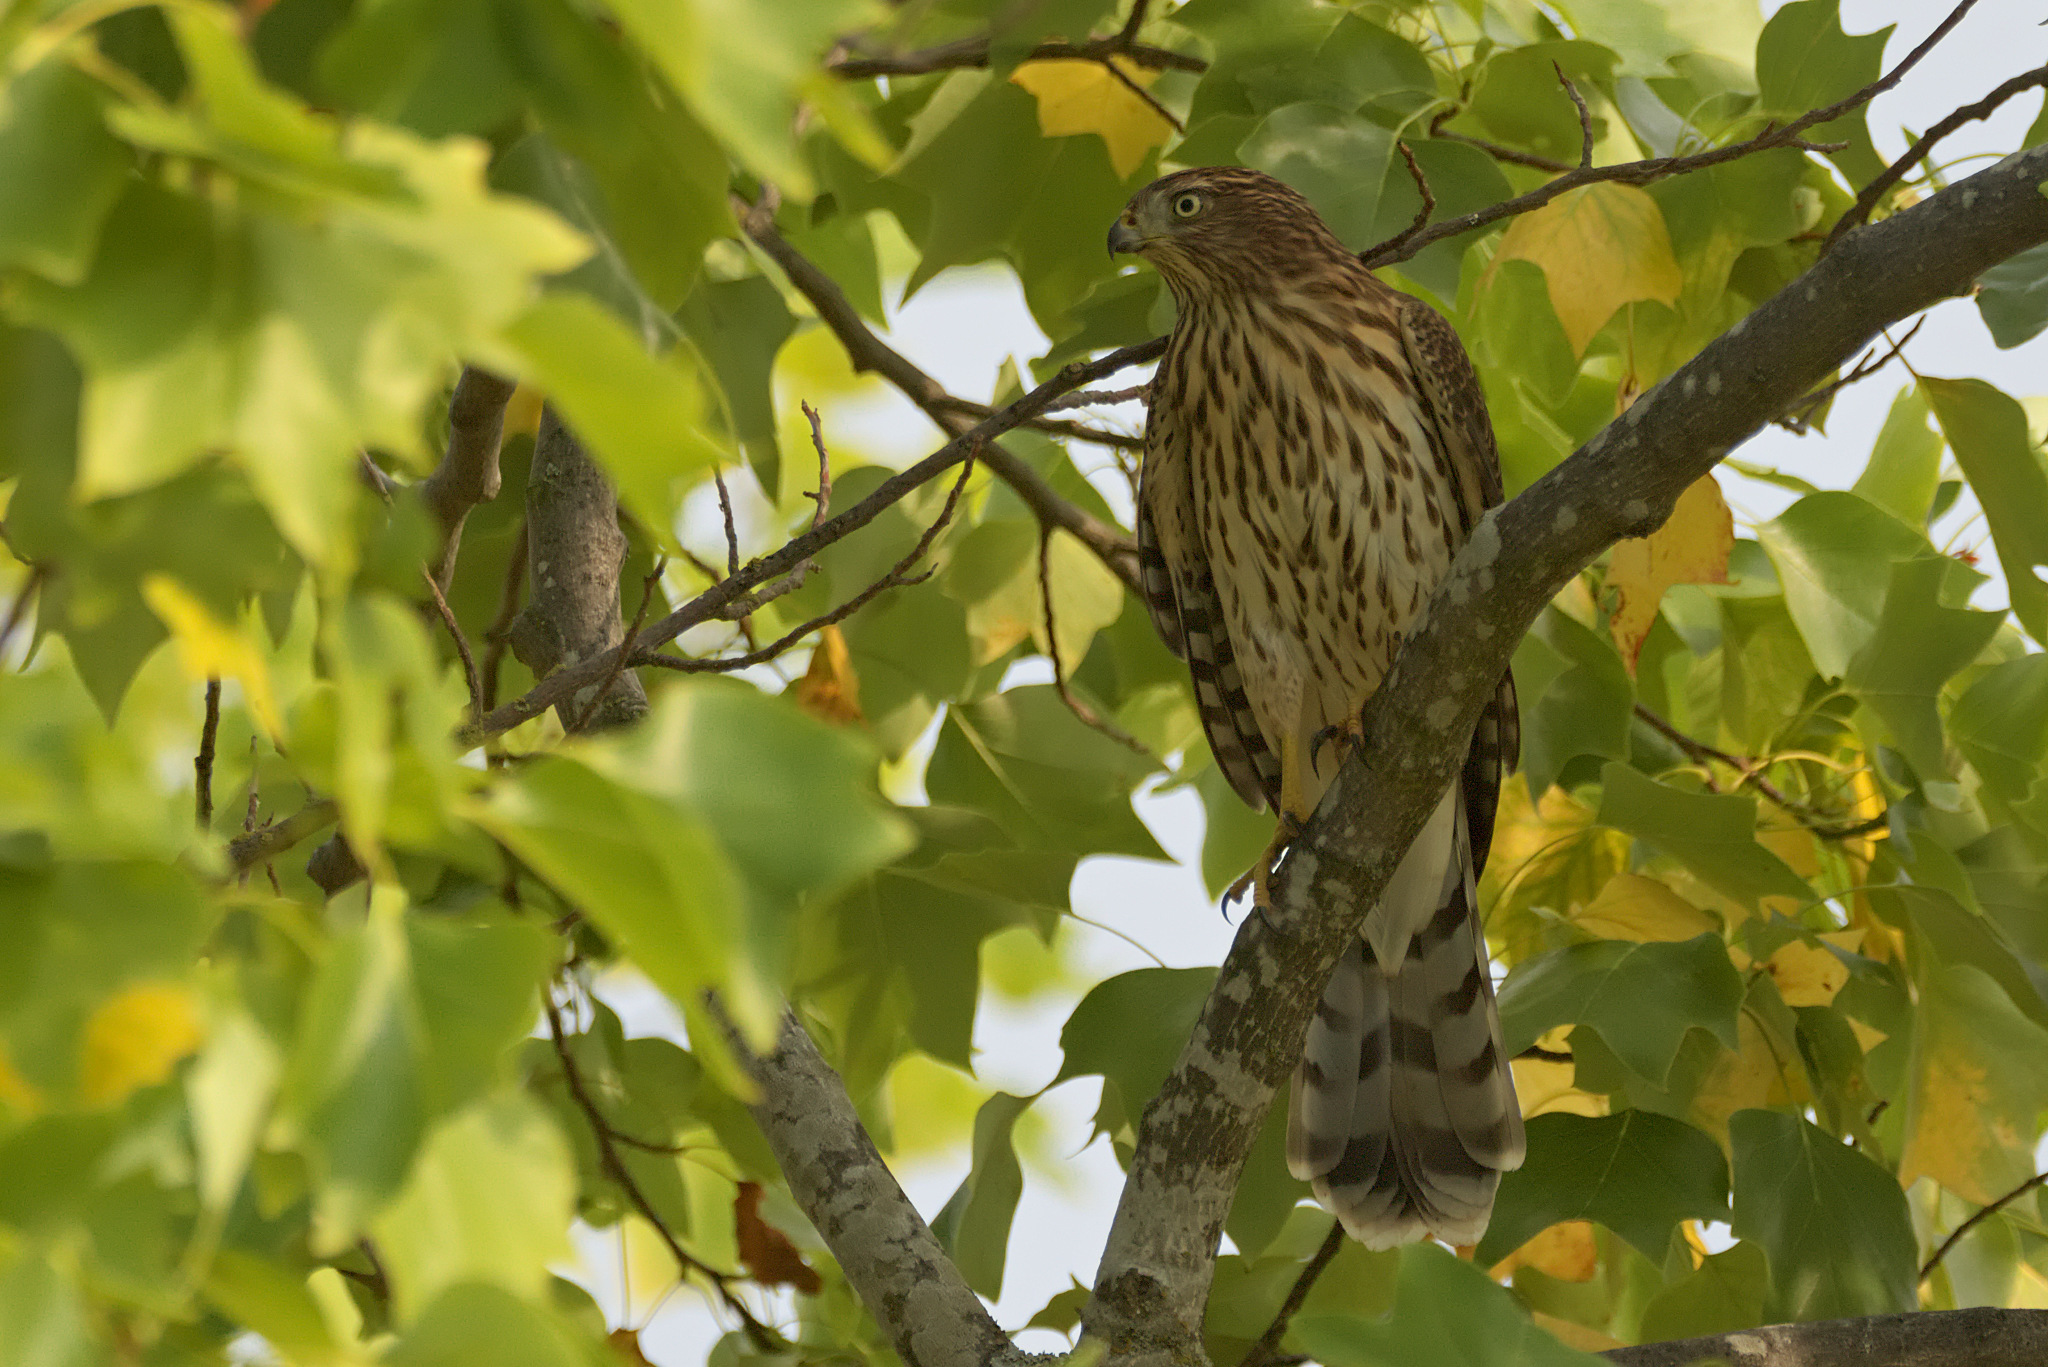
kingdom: Animalia
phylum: Chordata
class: Aves
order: Accipitriformes
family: Accipitridae
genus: Accipiter
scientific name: Accipiter cooperii
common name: Cooper's hawk
